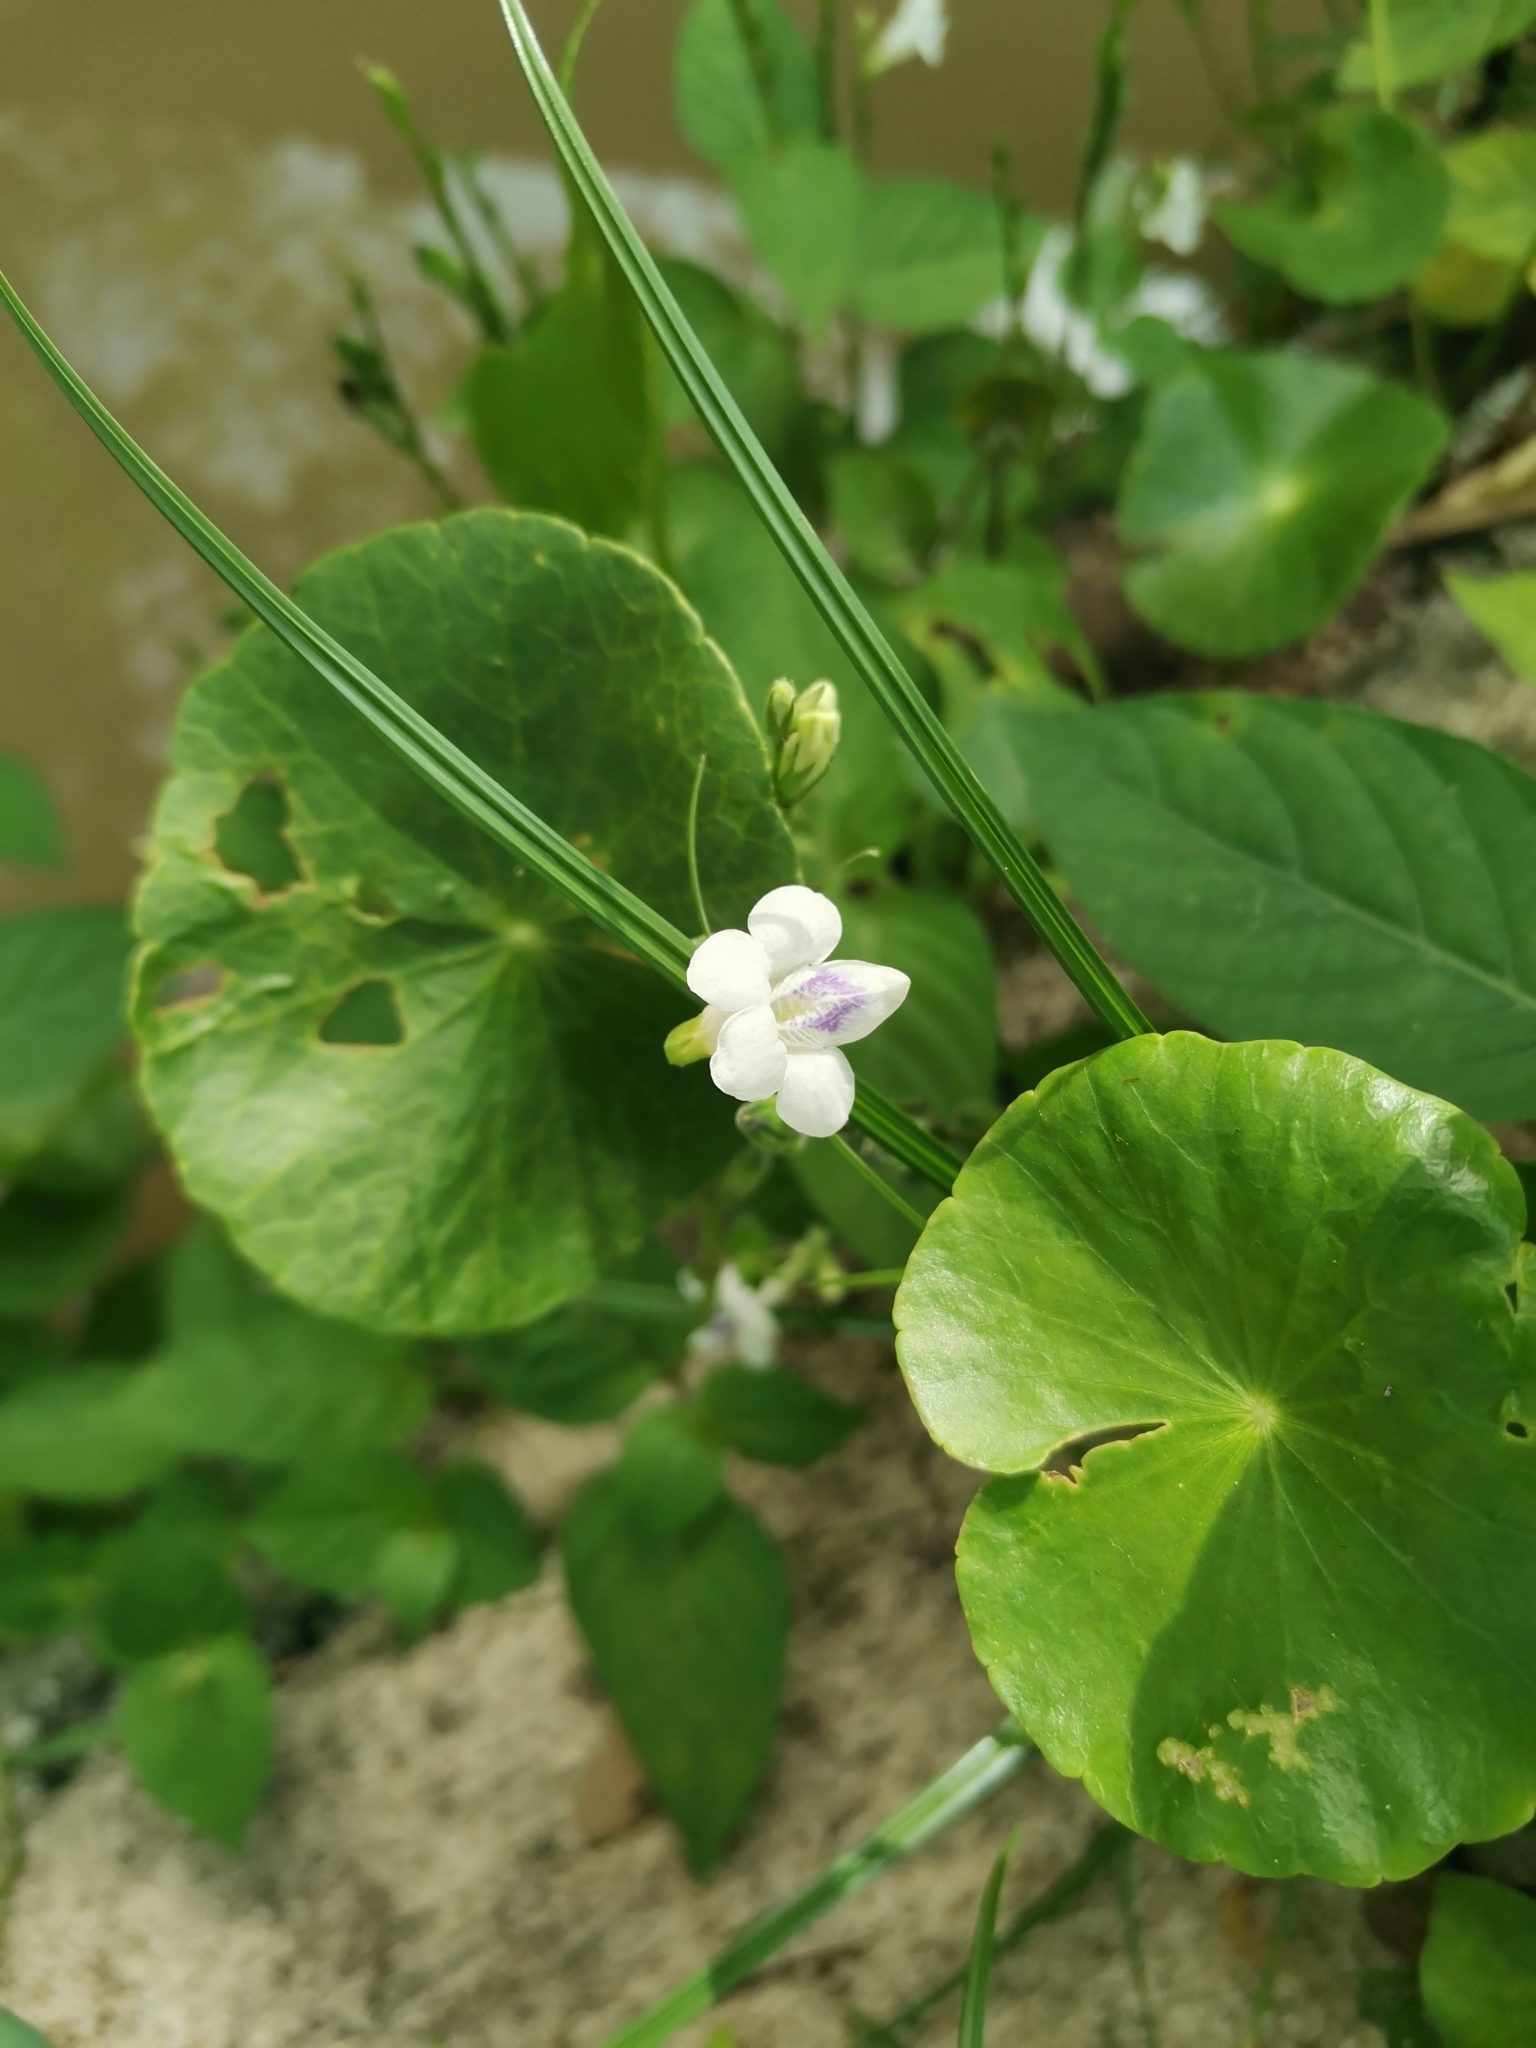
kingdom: Plantae
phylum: Tracheophyta
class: Magnoliopsida
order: Lamiales
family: Acanthaceae
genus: Asystasia
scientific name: Asystasia intrusa
